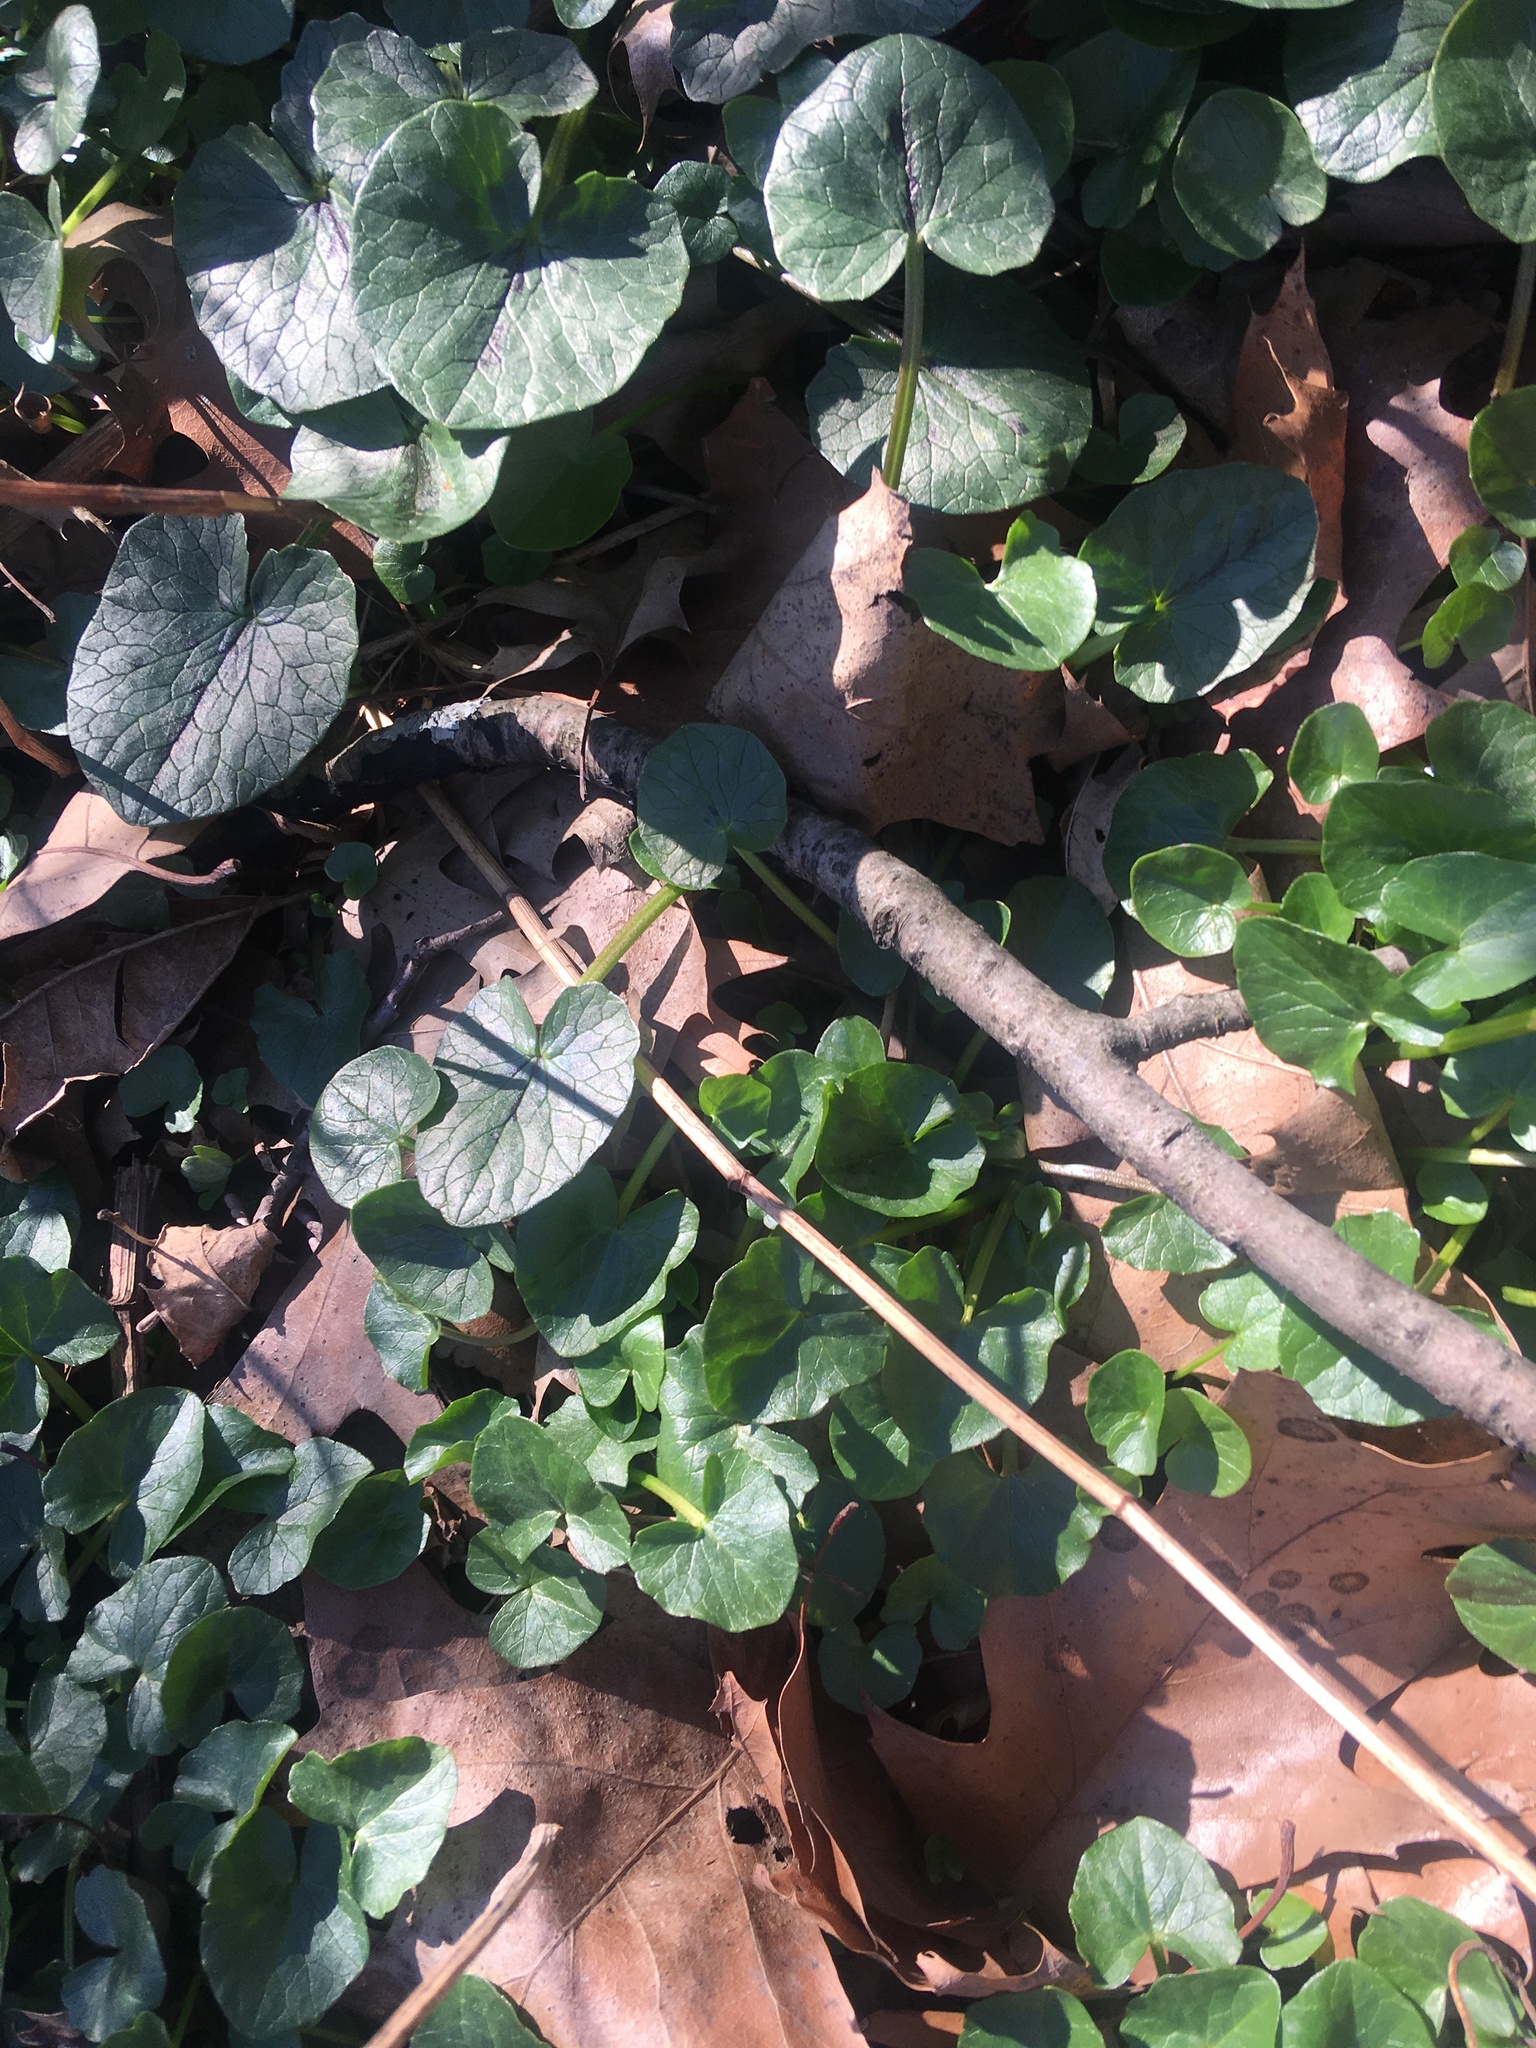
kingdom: Plantae
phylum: Tracheophyta
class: Magnoliopsida
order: Ranunculales
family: Ranunculaceae
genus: Ficaria
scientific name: Ficaria verna
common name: Lesser celandine
